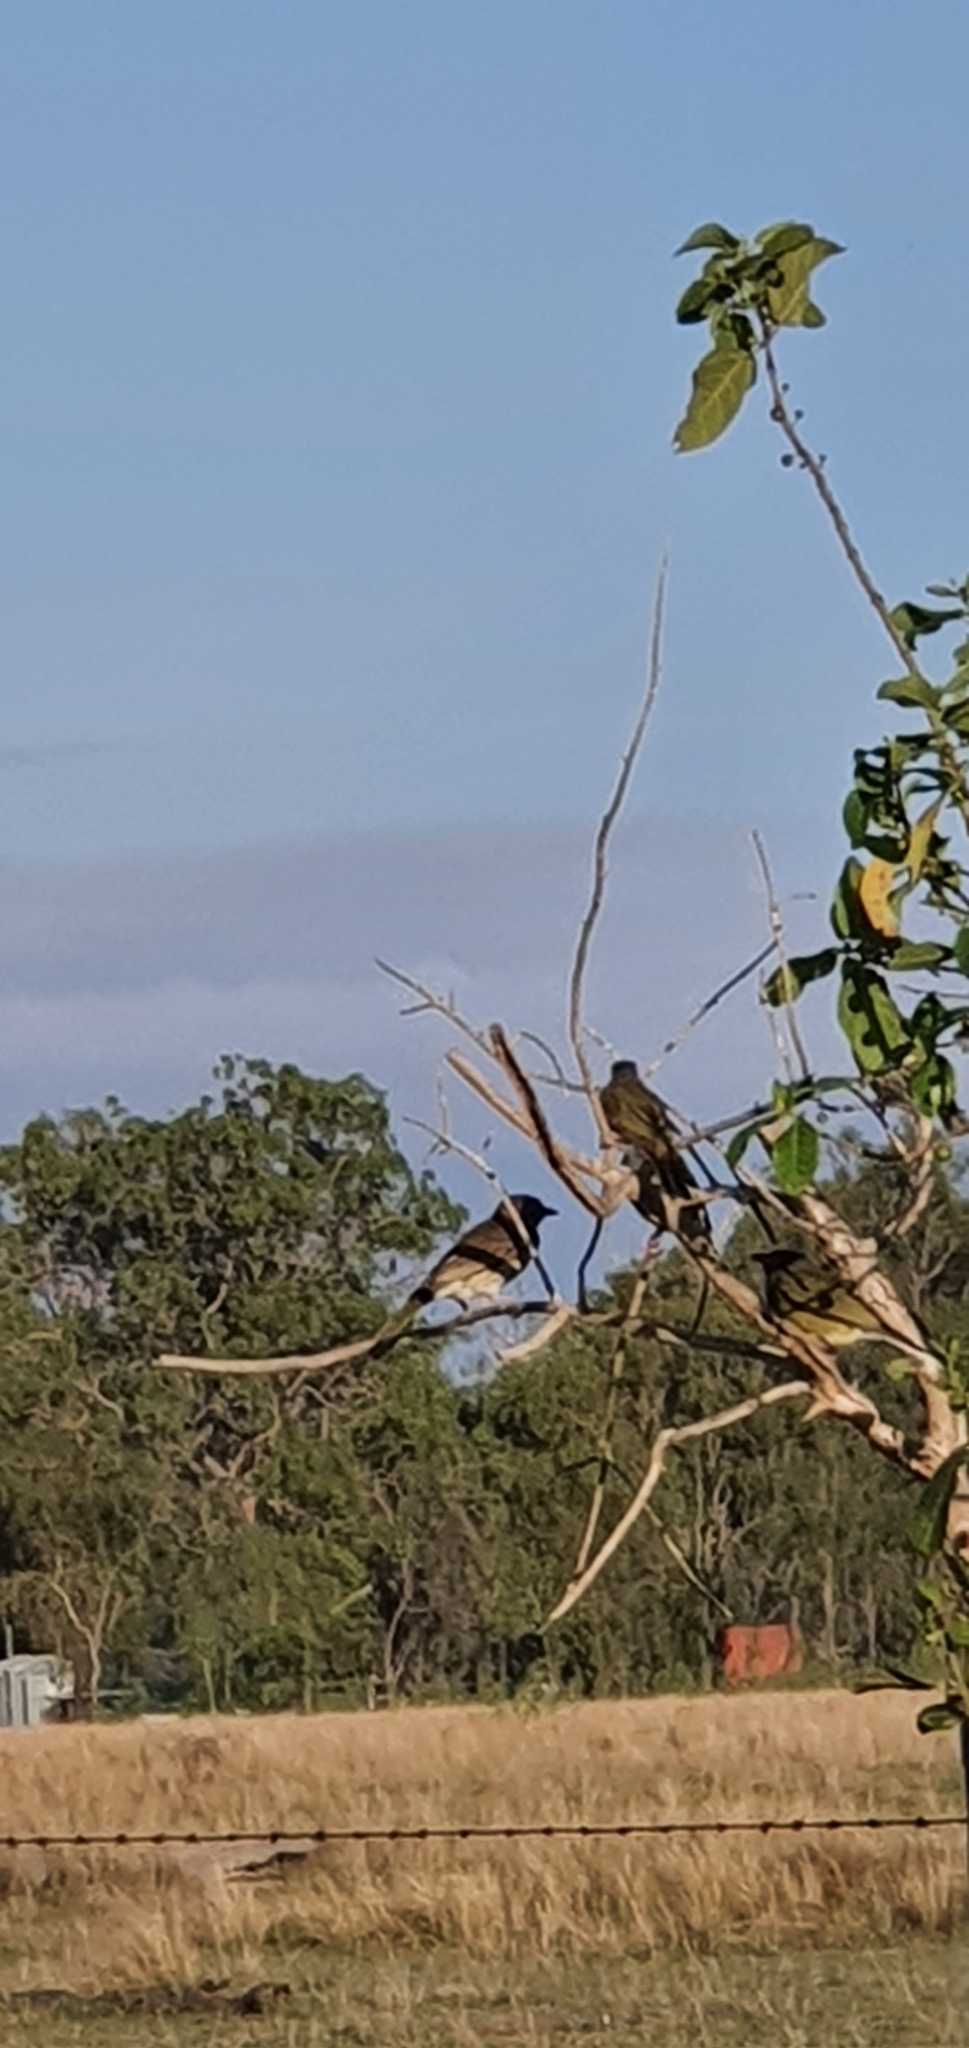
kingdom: Animalia
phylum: Chordata
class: Aves
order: Passeriformes
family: Oriolidae
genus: Sphecotheres
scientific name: Sphecotheres vieilloti
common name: Australasian figbird
